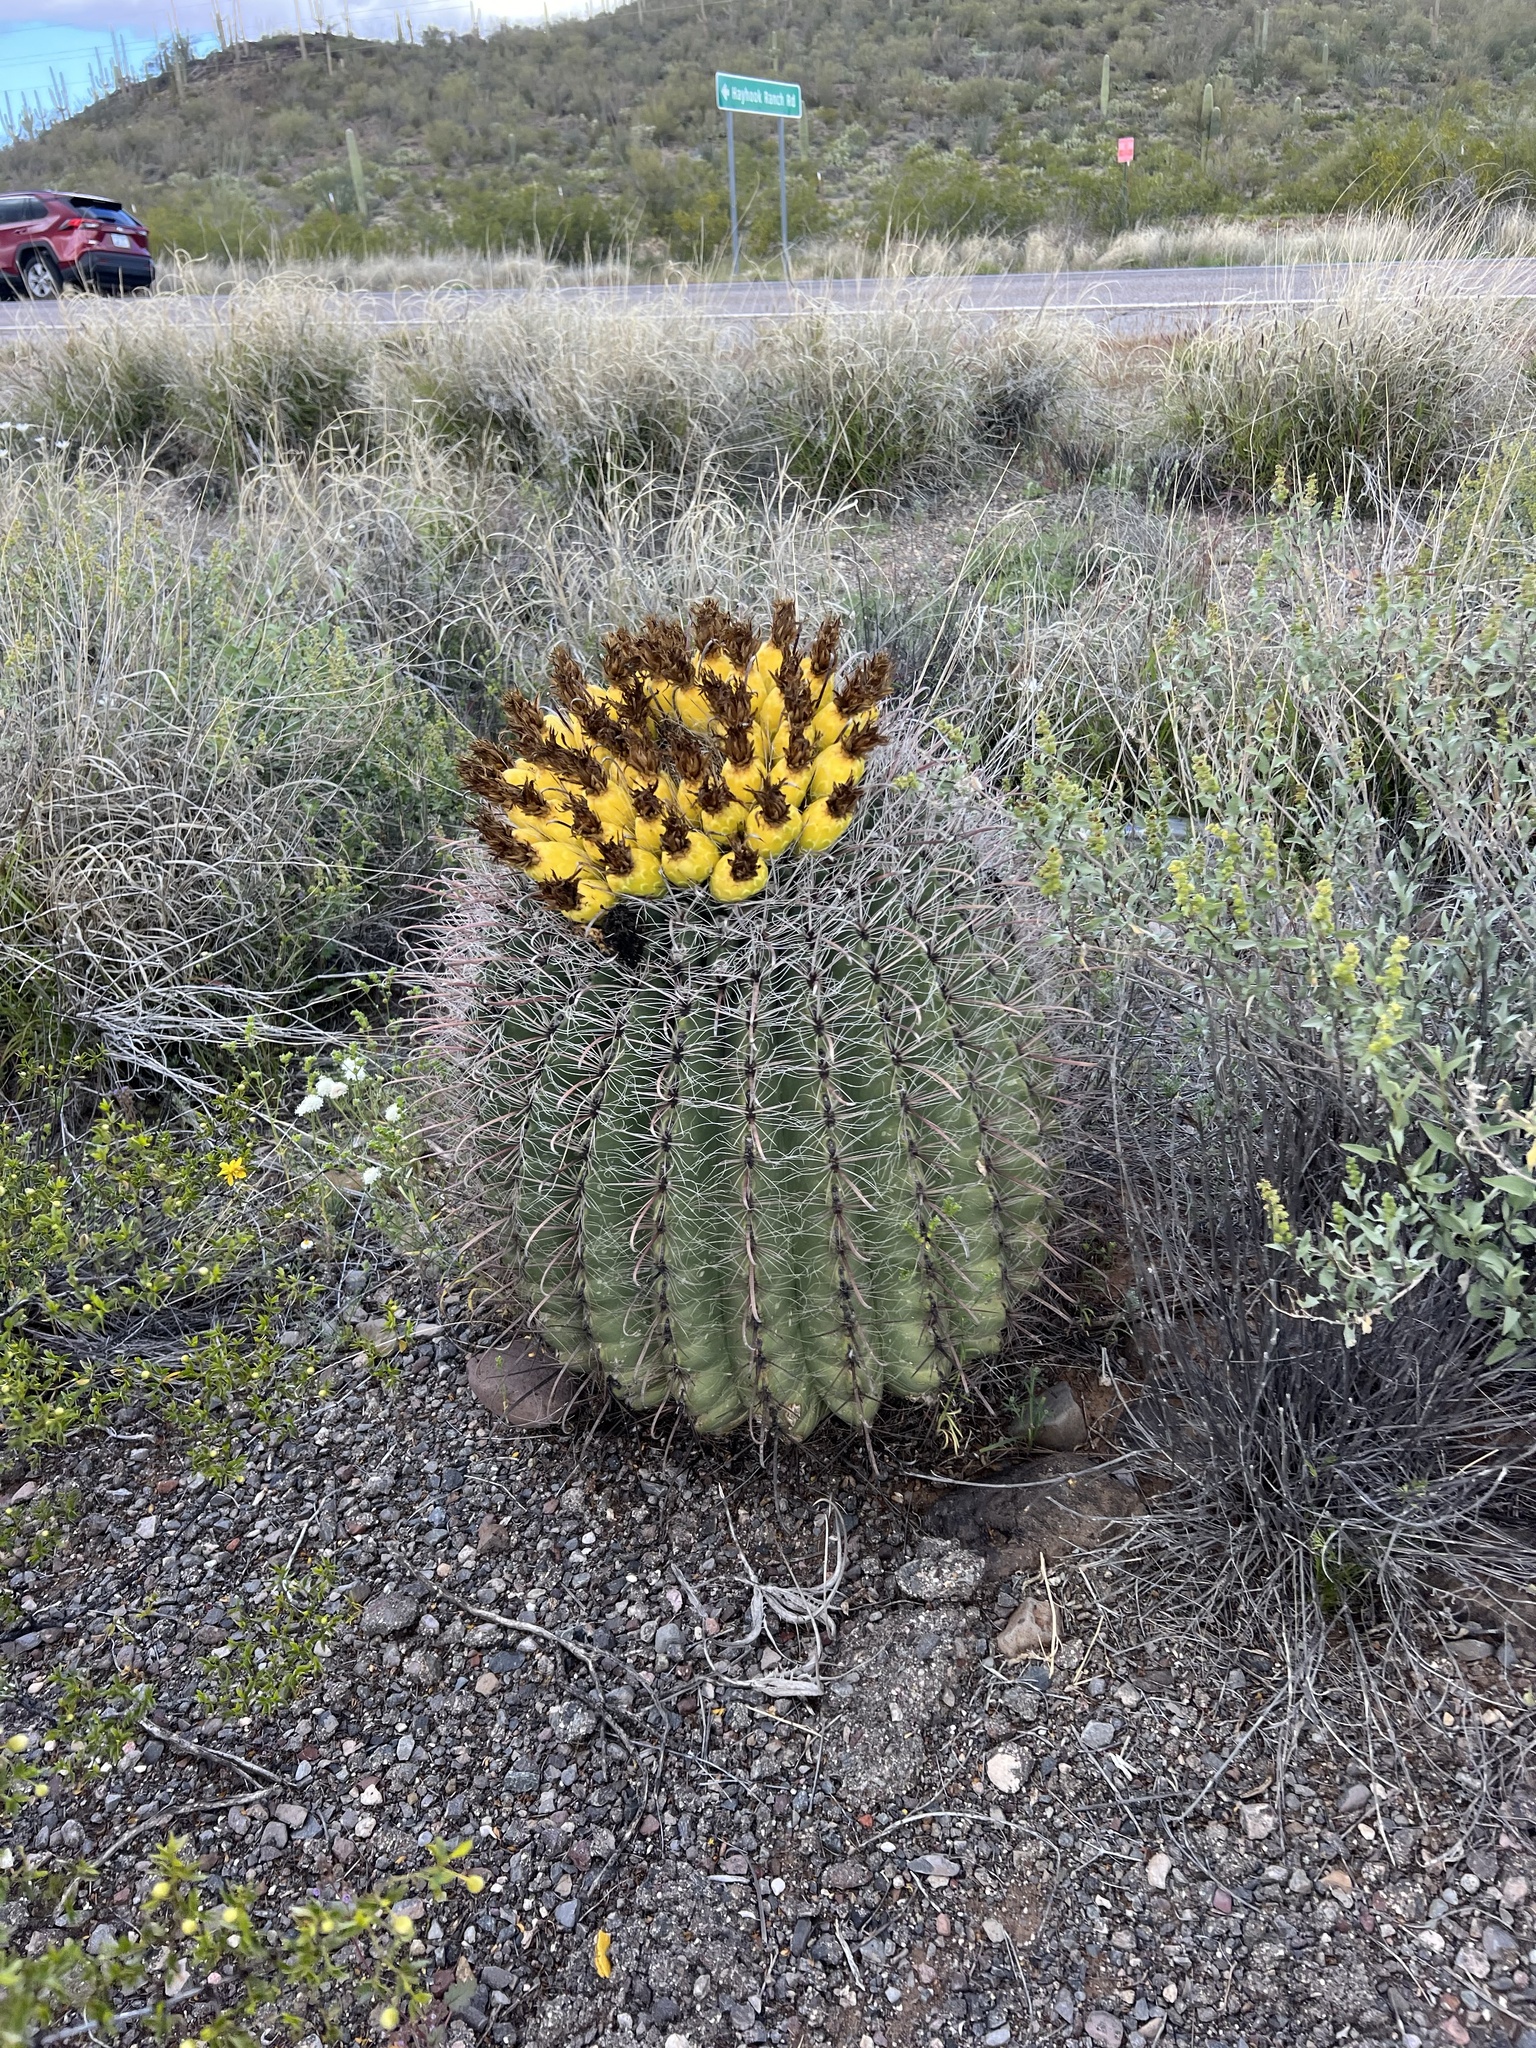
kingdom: Plantae
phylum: Tracheophyta
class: Magnoliopsida
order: Caryophyllales
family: Cactaceae
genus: Ferocactus
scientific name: Ferocactus wislizeni
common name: Candy barrel cactus
